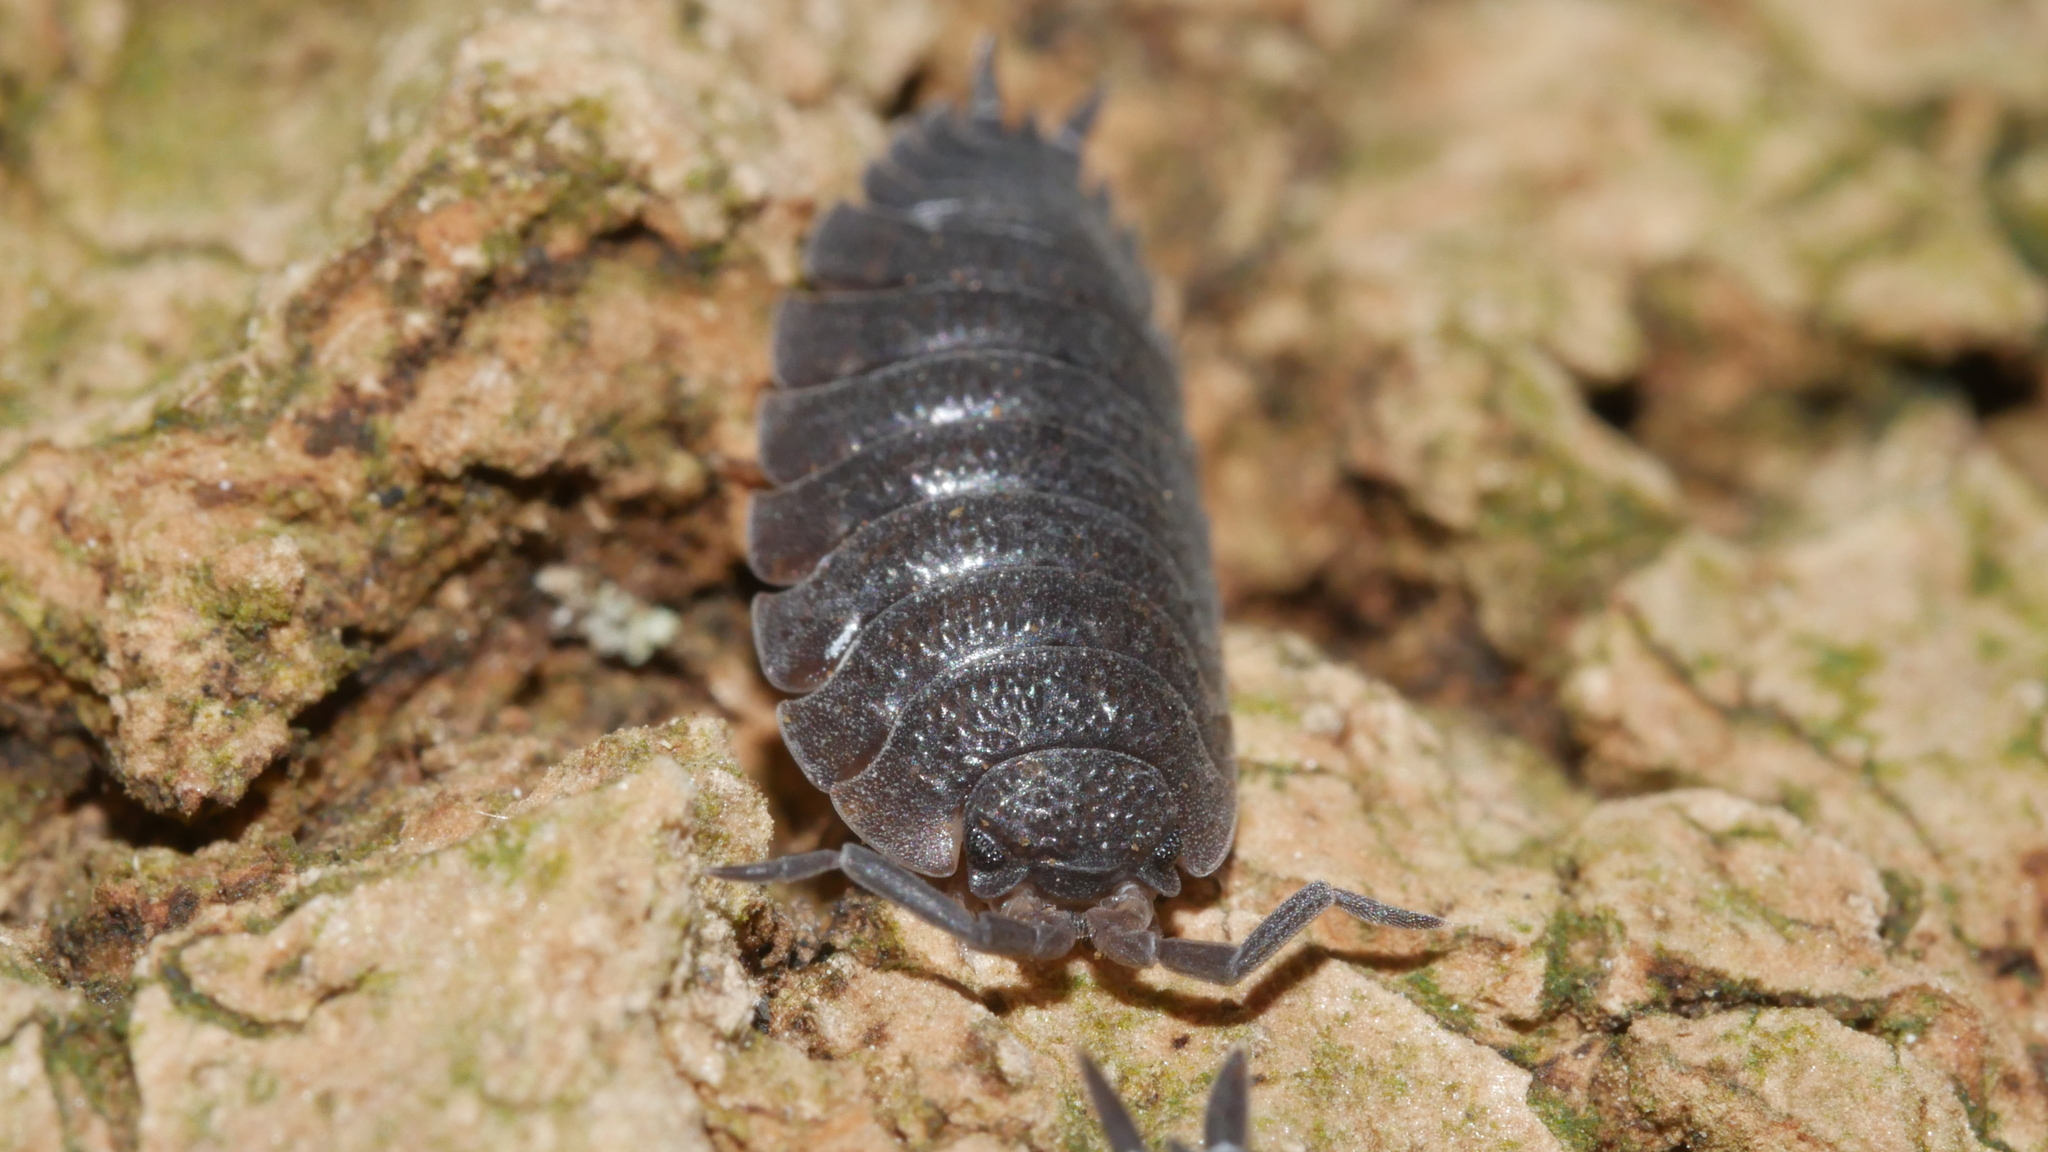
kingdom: Animalia
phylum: Arthropoda
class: Malacostraca
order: Isopoda
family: Porcellionidae
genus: Porcellio
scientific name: Porcellio scaber
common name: Common rough woodlouse
